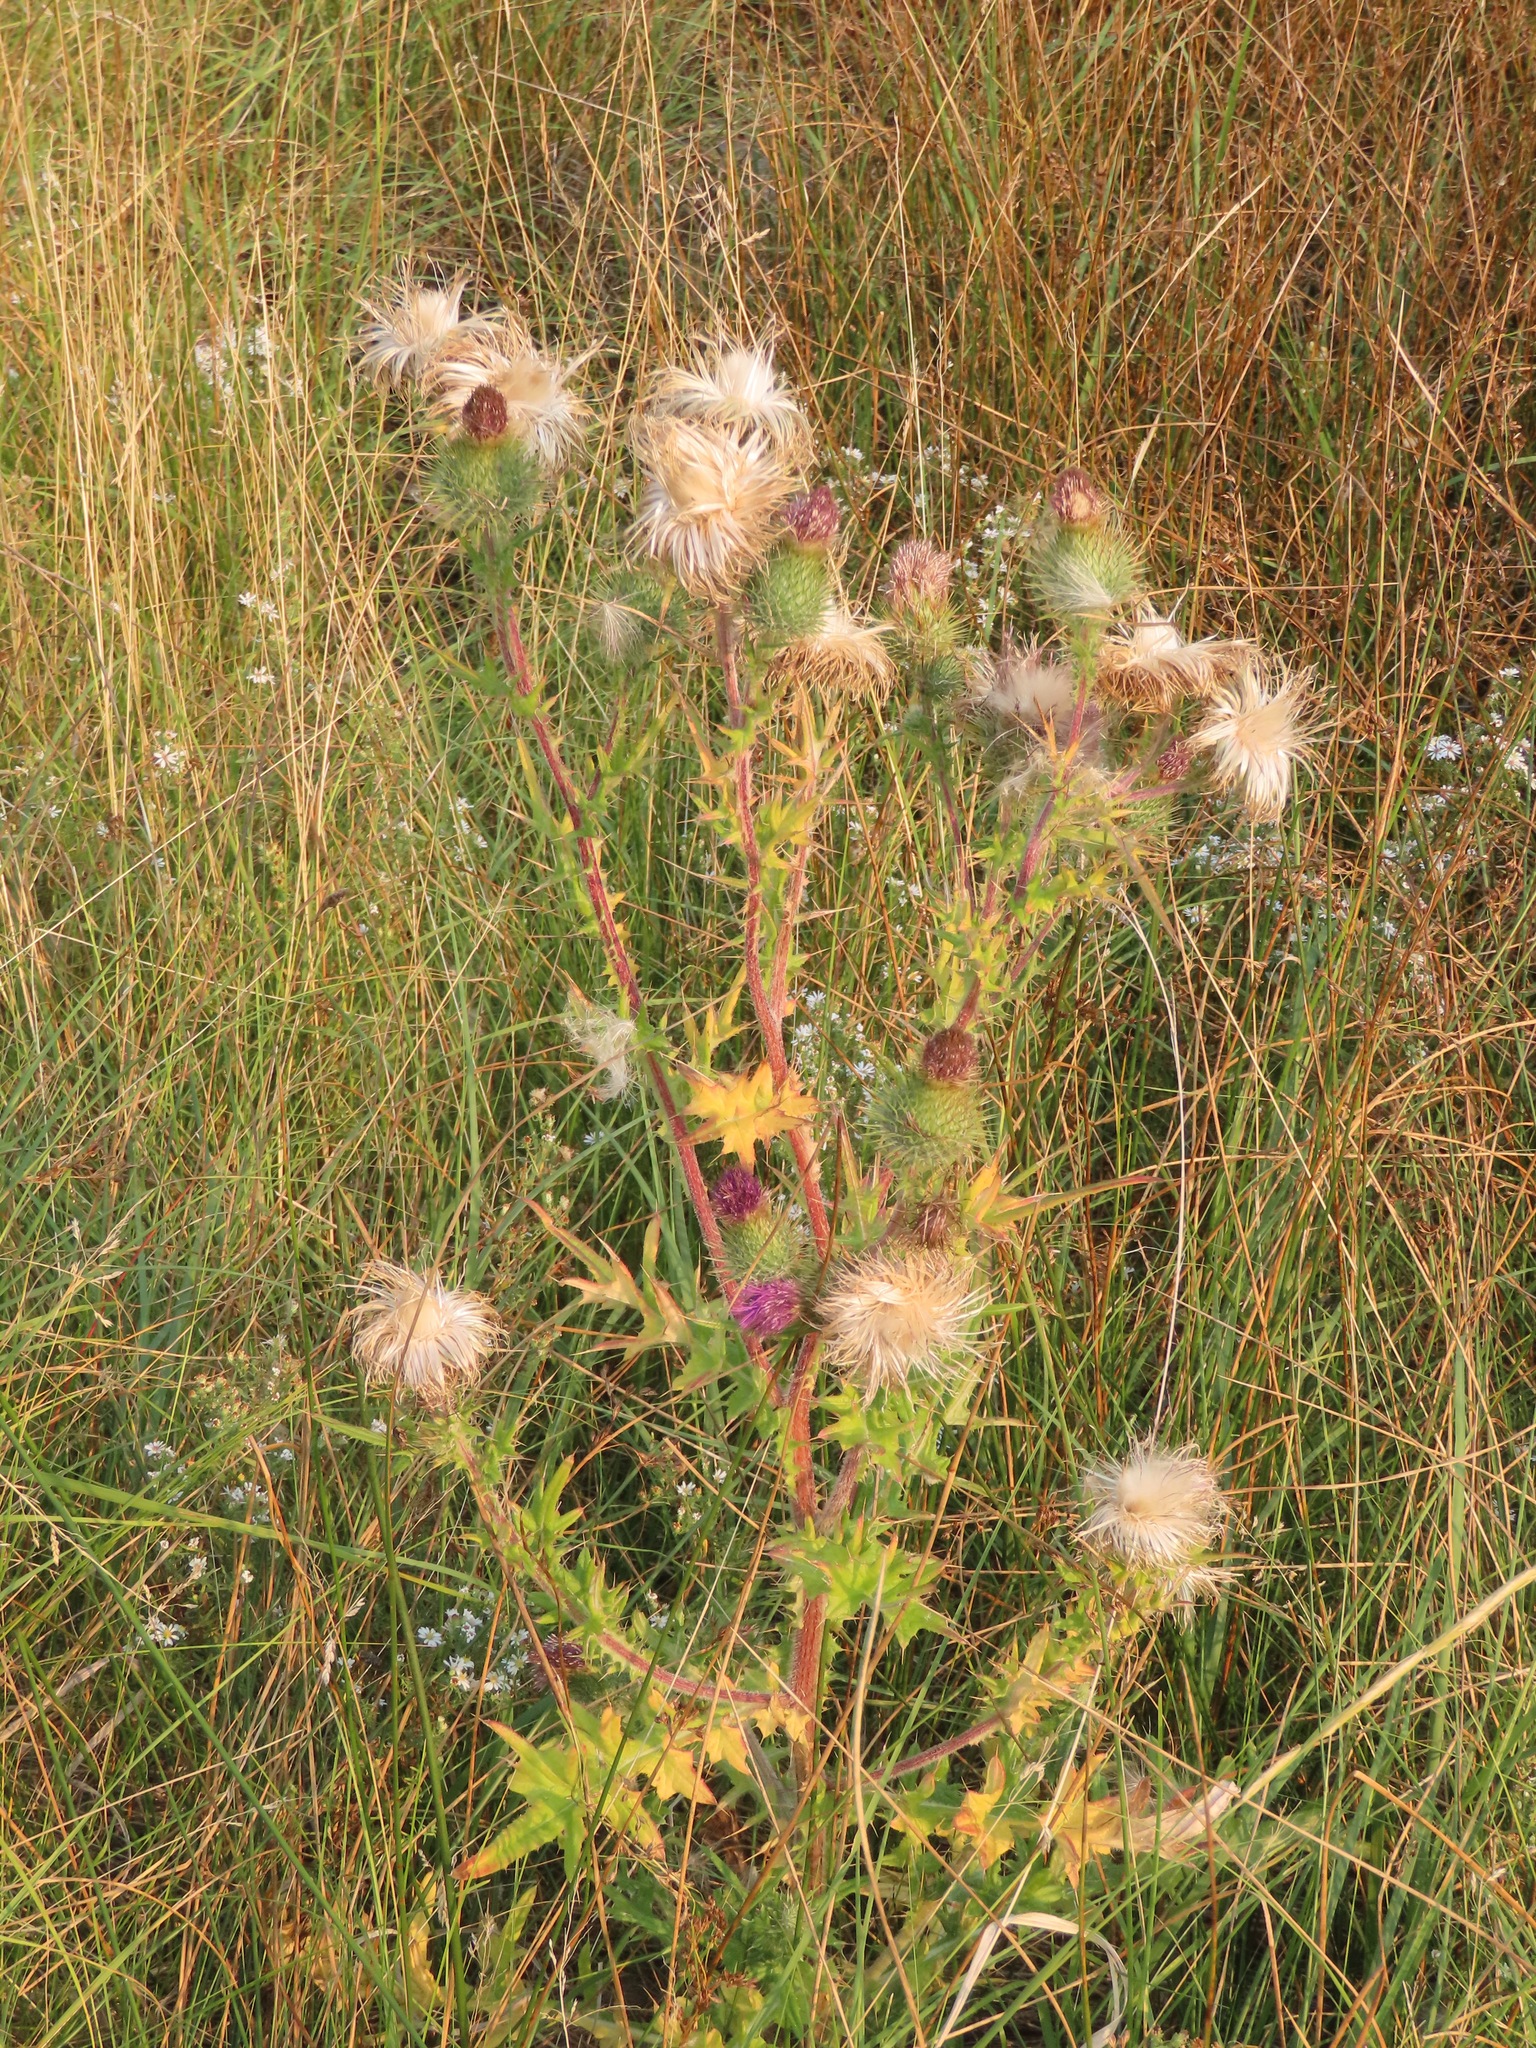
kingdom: Plantae
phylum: Tracheophyta
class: Magnoliopsida
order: Asterales
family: Asteraceae
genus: Cirsium
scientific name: Cirsium vulgare
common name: Bull thistle
